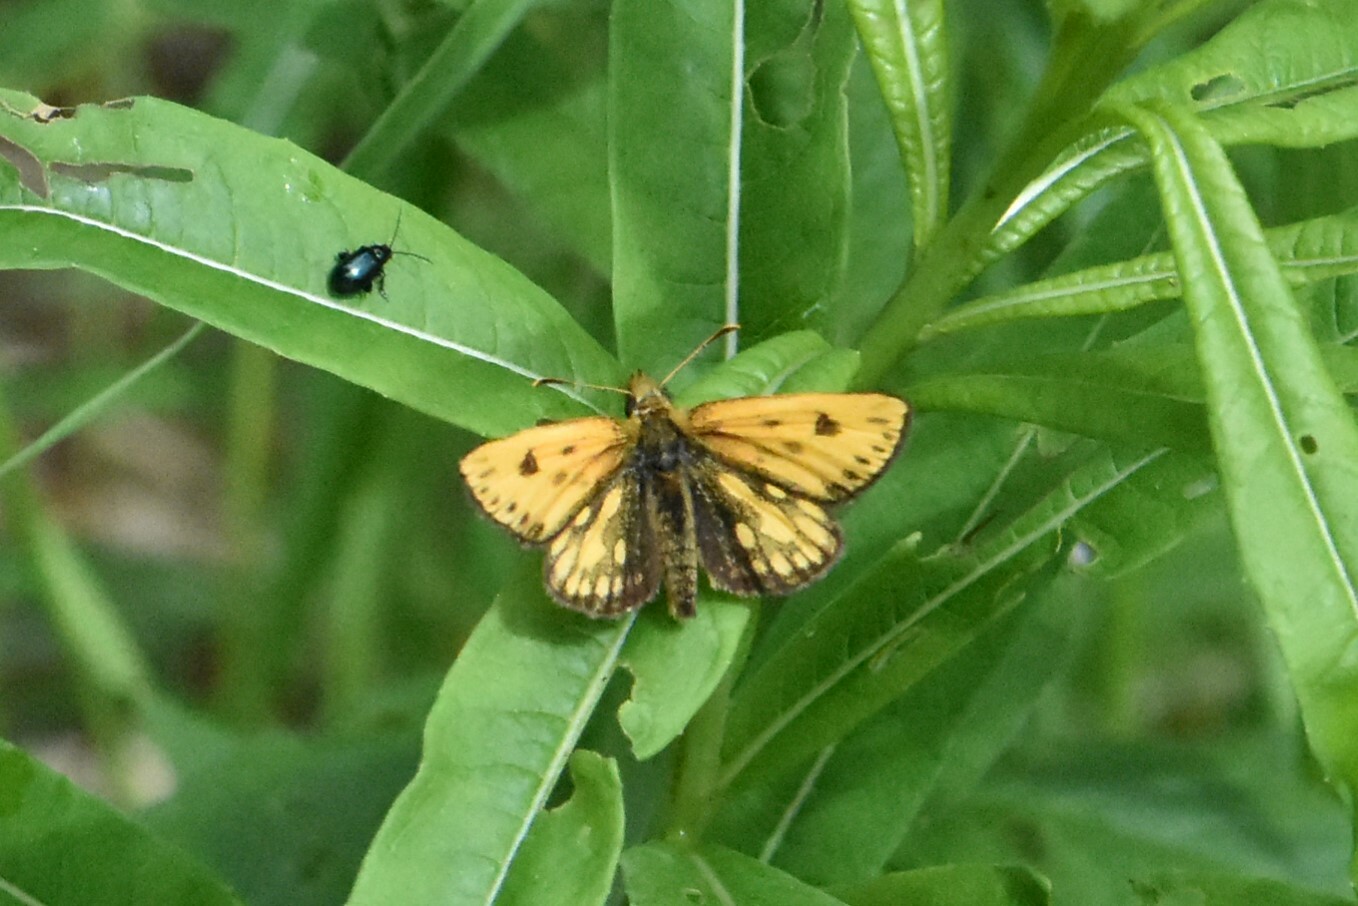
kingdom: Animalia
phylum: Arthropoda
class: Insecta
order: Lepidoptera
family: Hesperiidae
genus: Carterocephalus
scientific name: Carterocephalus silvicola
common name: Northern chequered skipper
